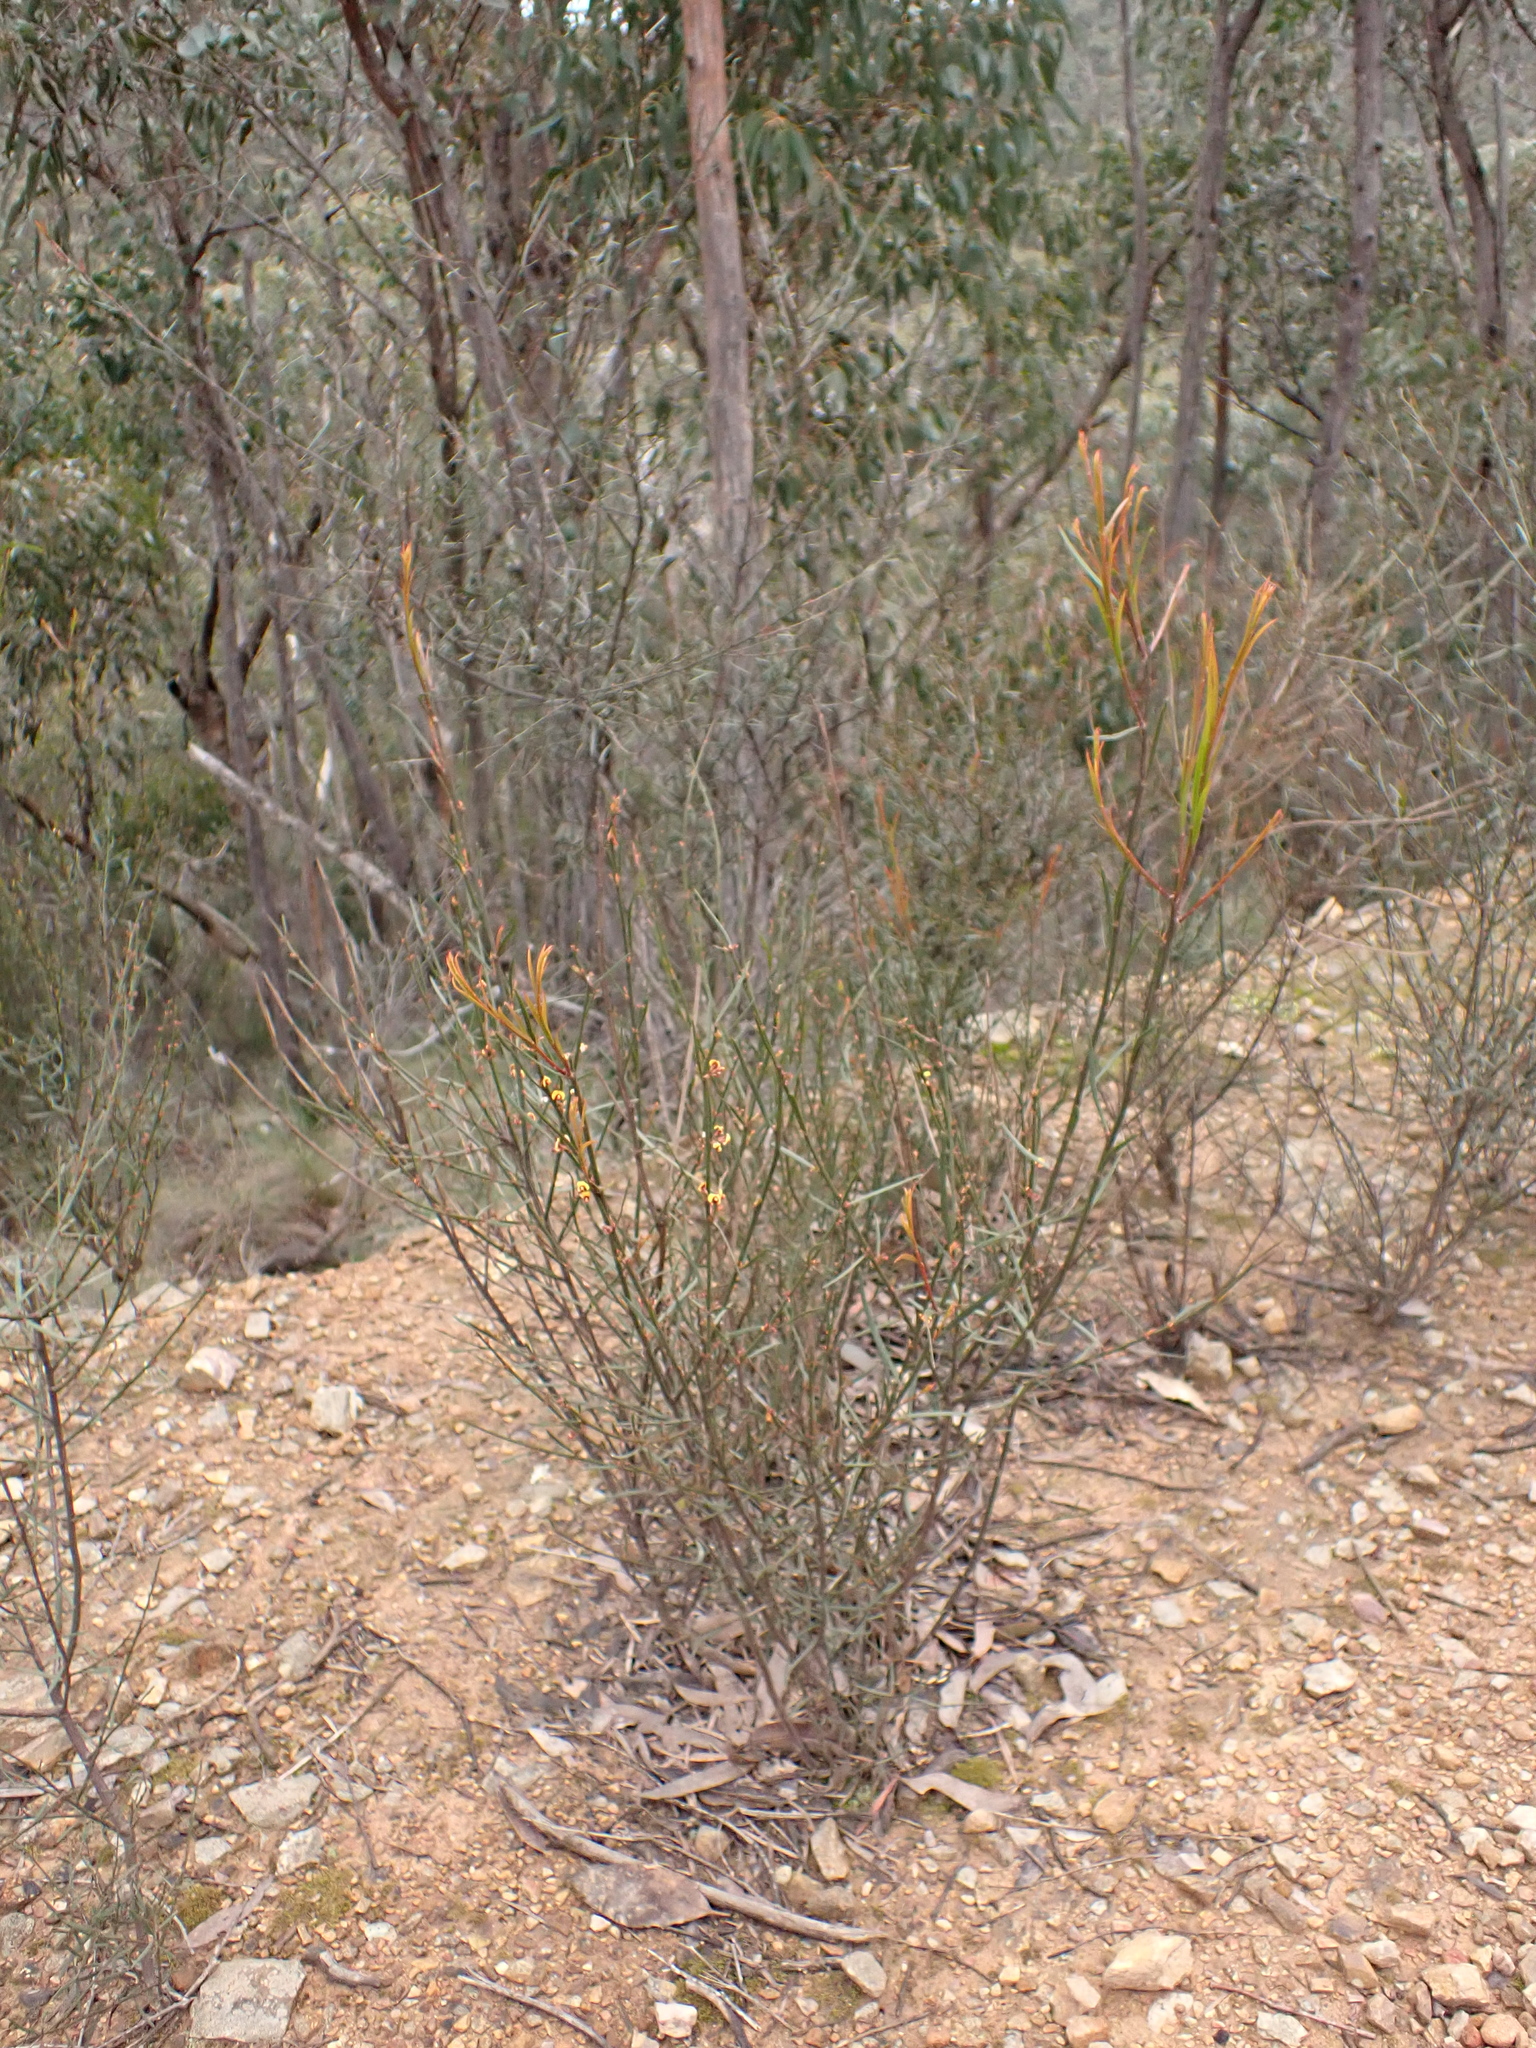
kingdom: Plantae
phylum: Tracheophyta
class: Magnoliopsida
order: Fabales
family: Fabaceae
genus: Daviesia
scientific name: Daviesia leptophylla
